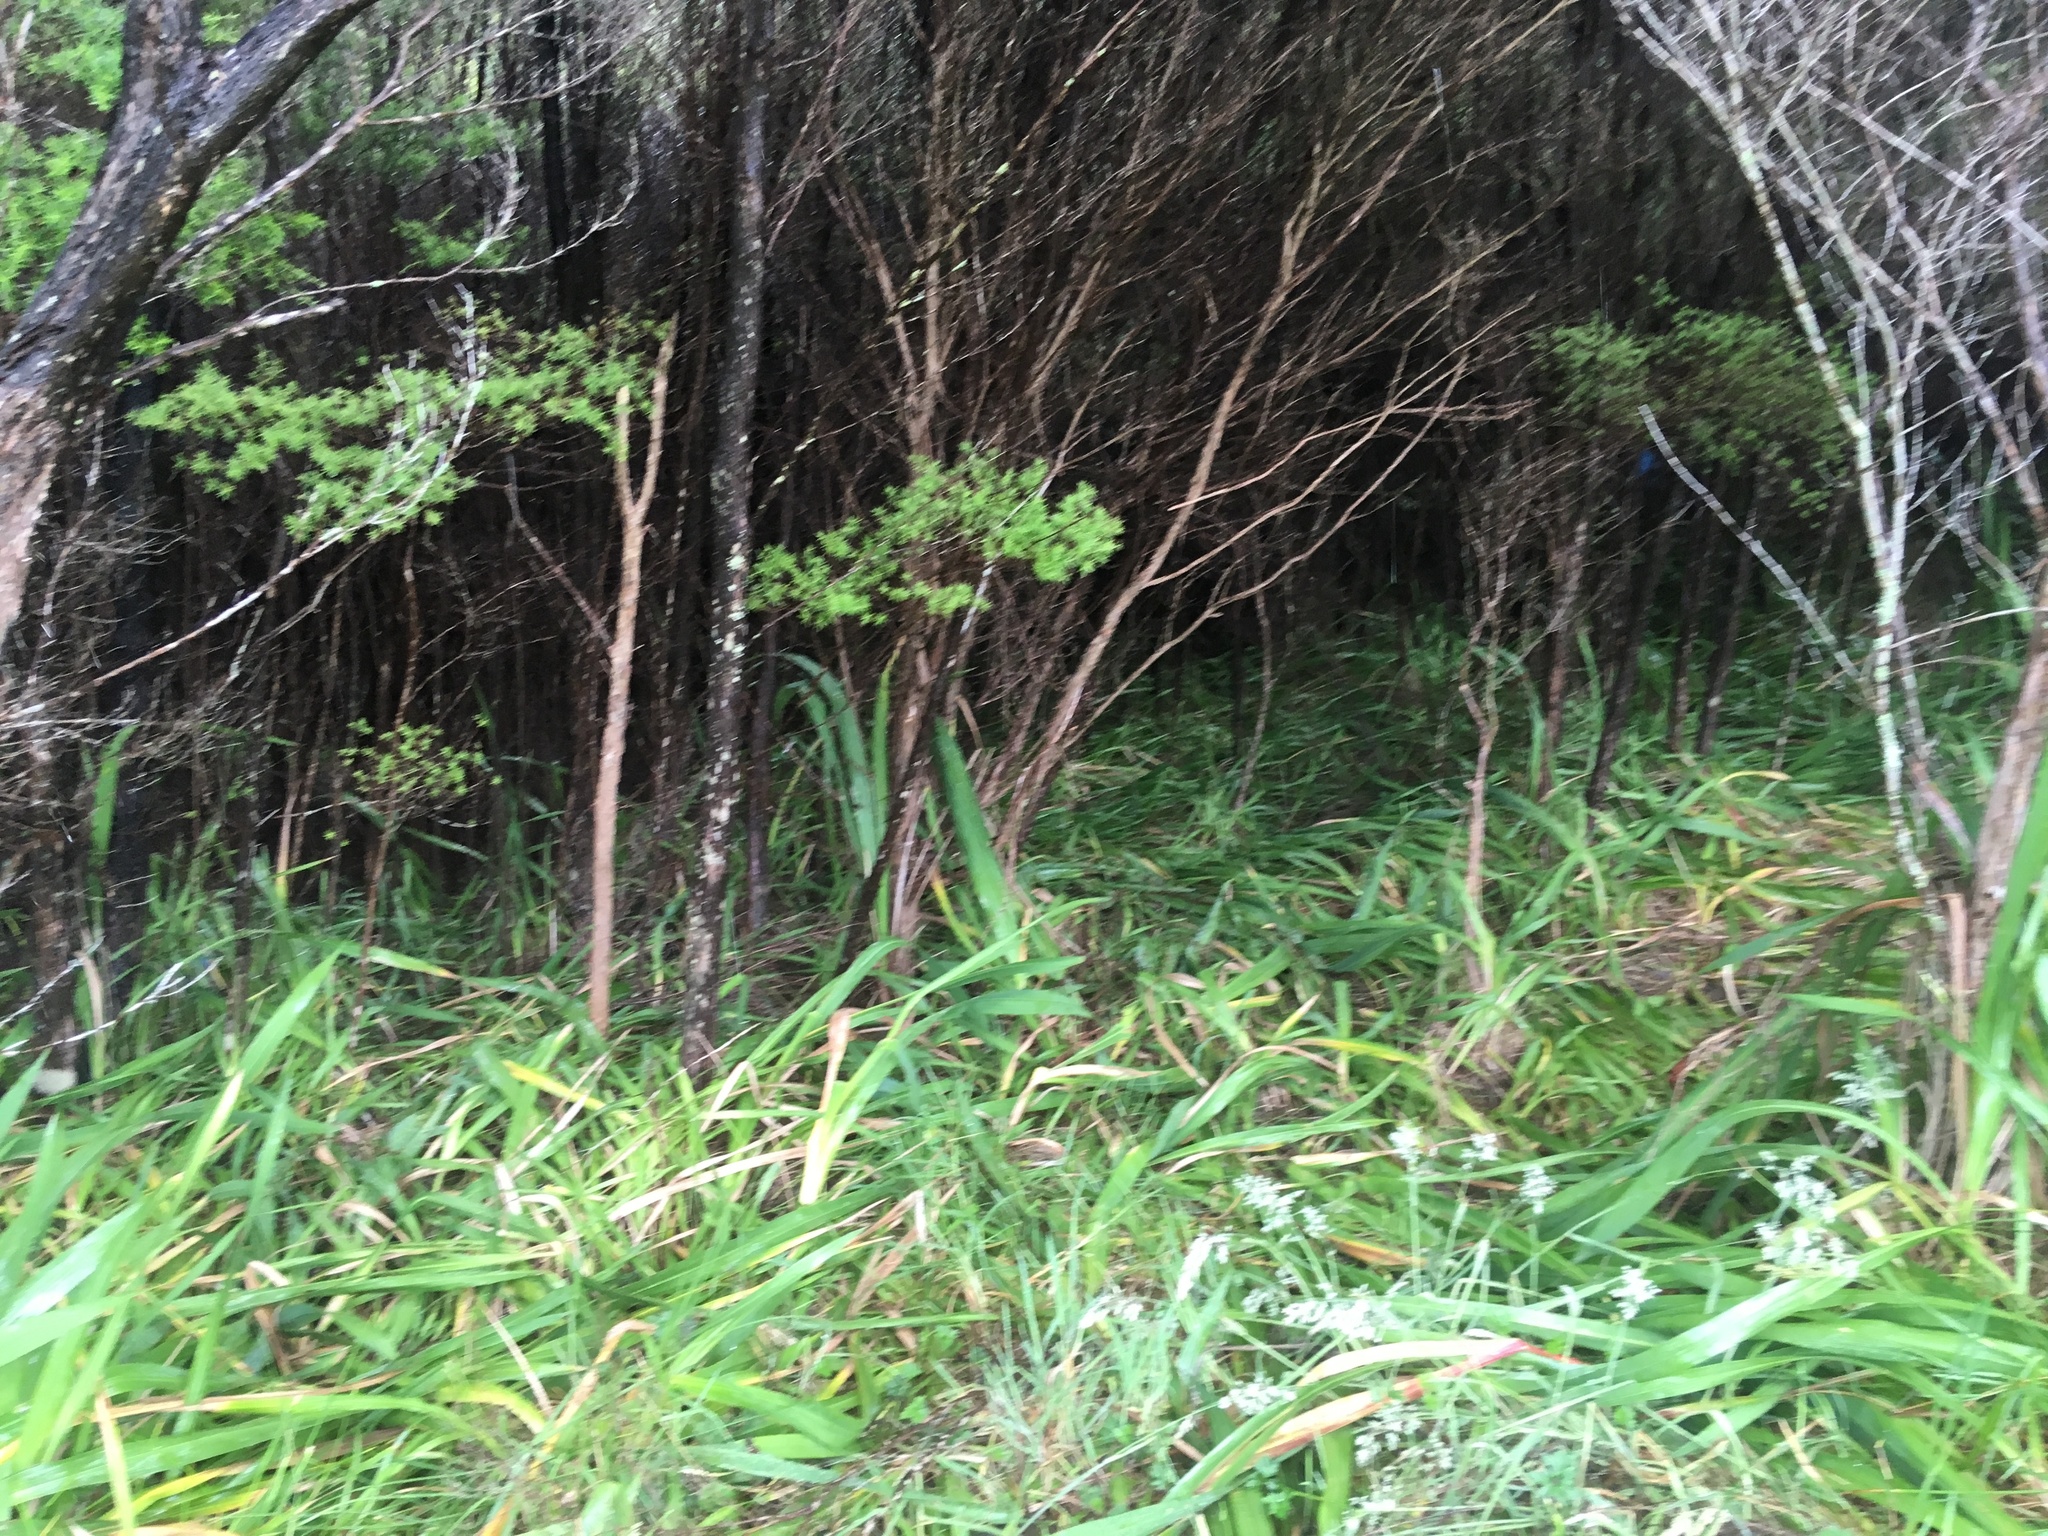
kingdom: Plantae
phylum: Tracheophyta
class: Liliopsida
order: Poales
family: Poaceae
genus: Holcus
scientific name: Holcus lanatus
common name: Yorkshire-fog
